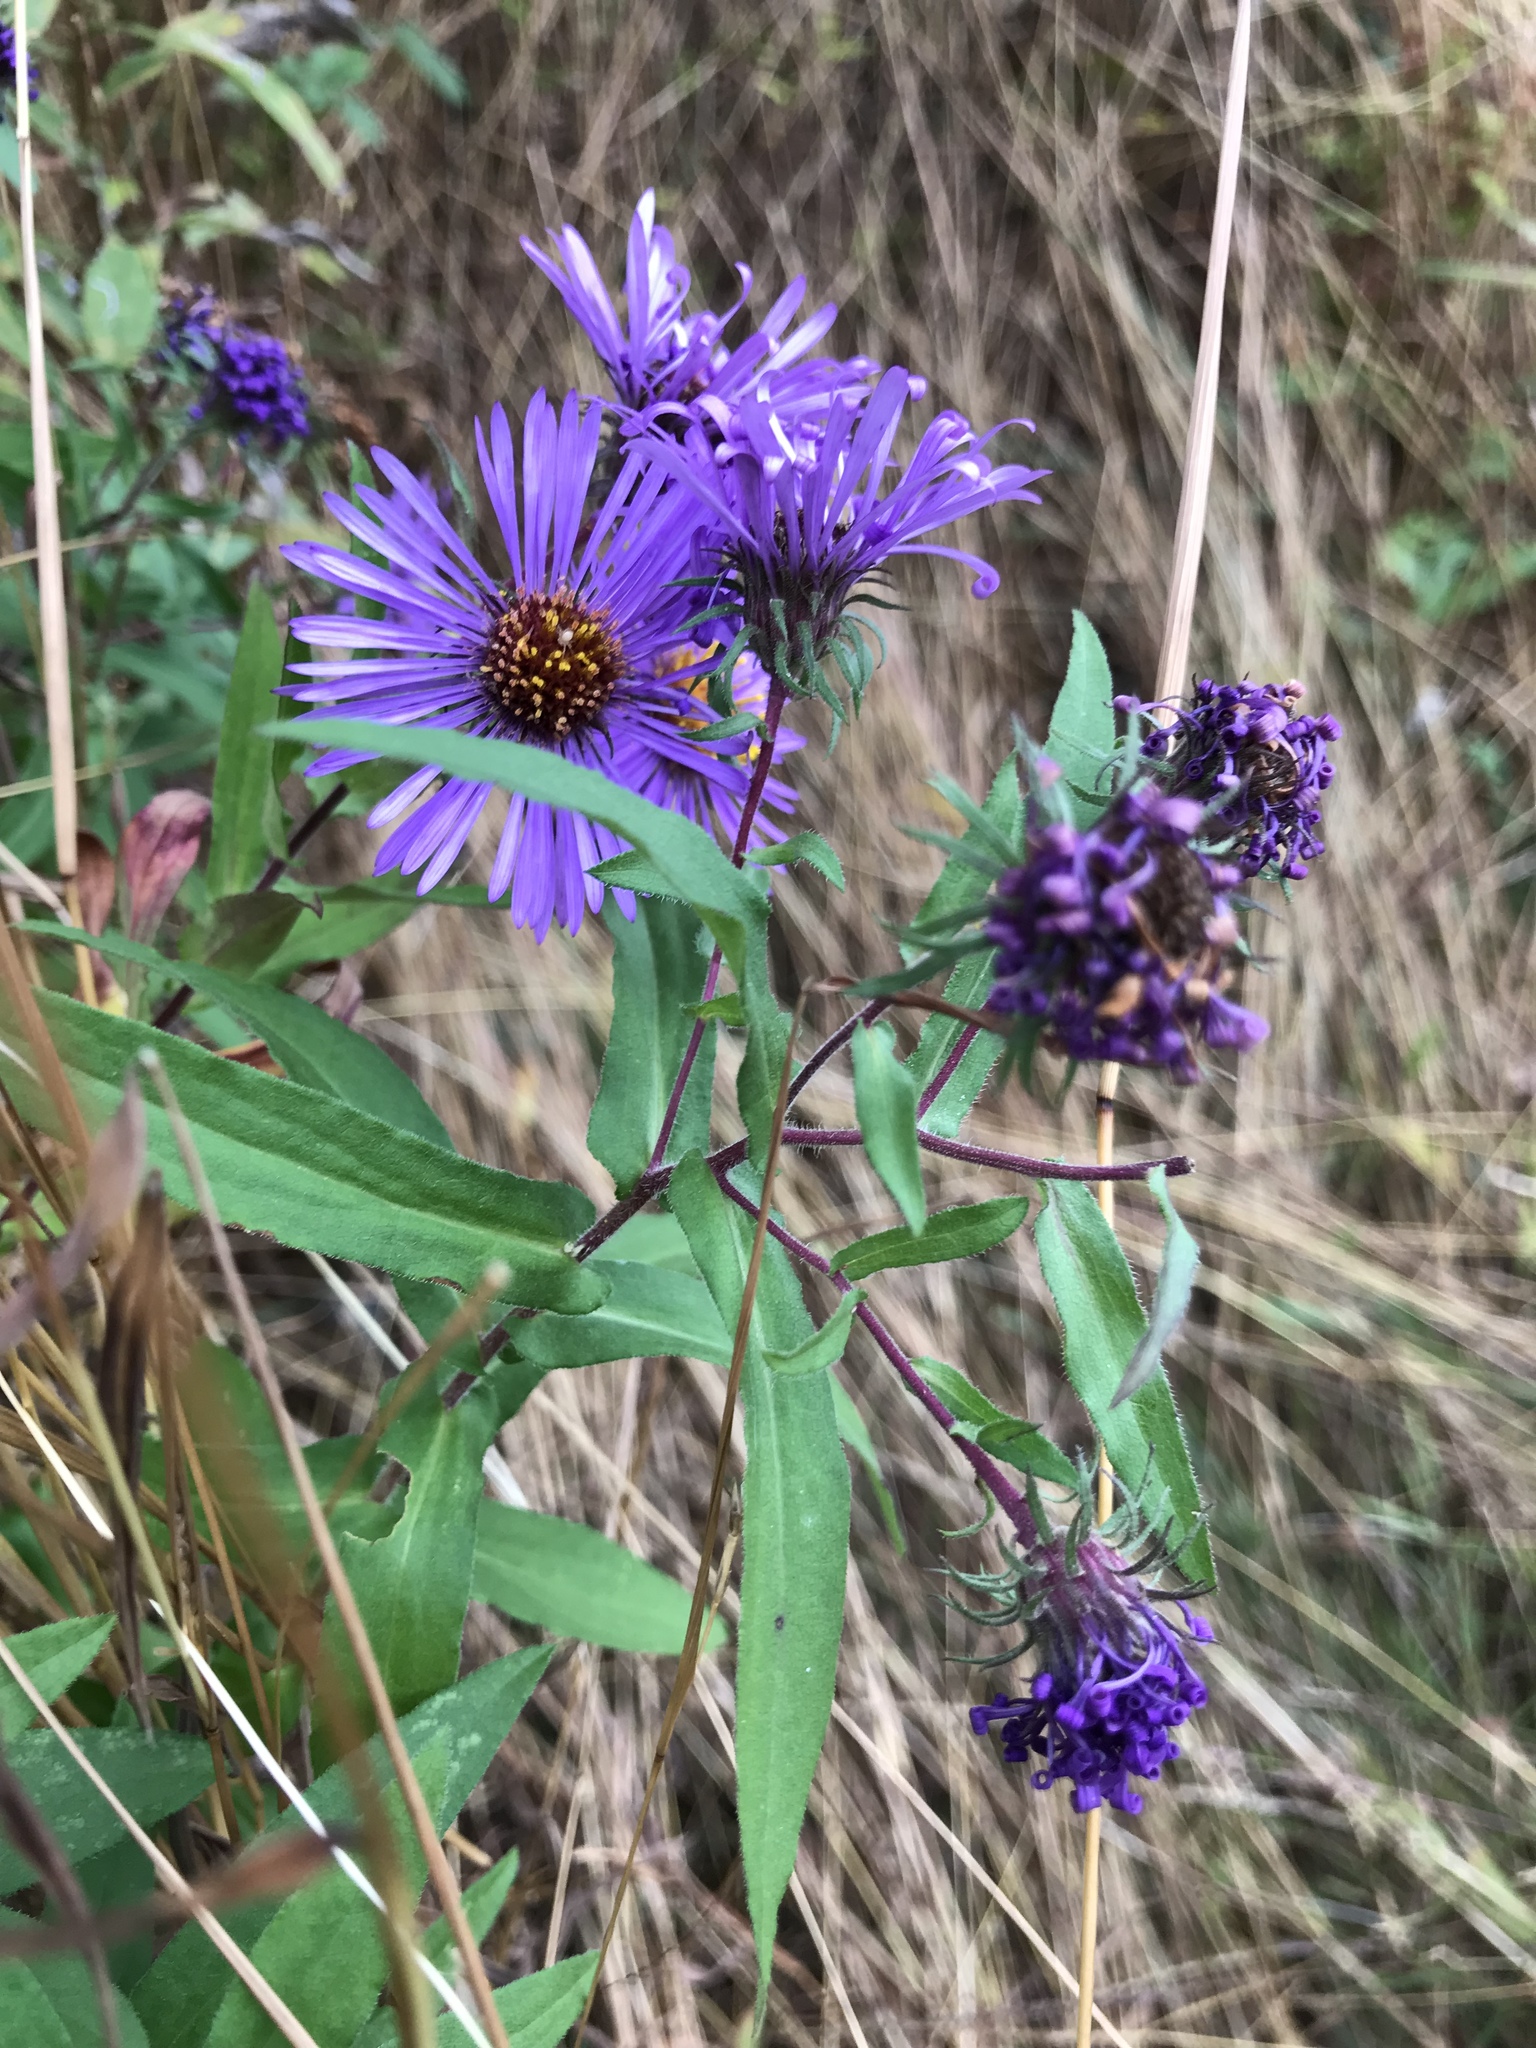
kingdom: Plantae
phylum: Tracheophyta
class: Magnoliopsida
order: Asterales
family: Asteraceae
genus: Symphyotrichum
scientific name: Symphyotrichum novae-angliae
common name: Michaelmas daisy
